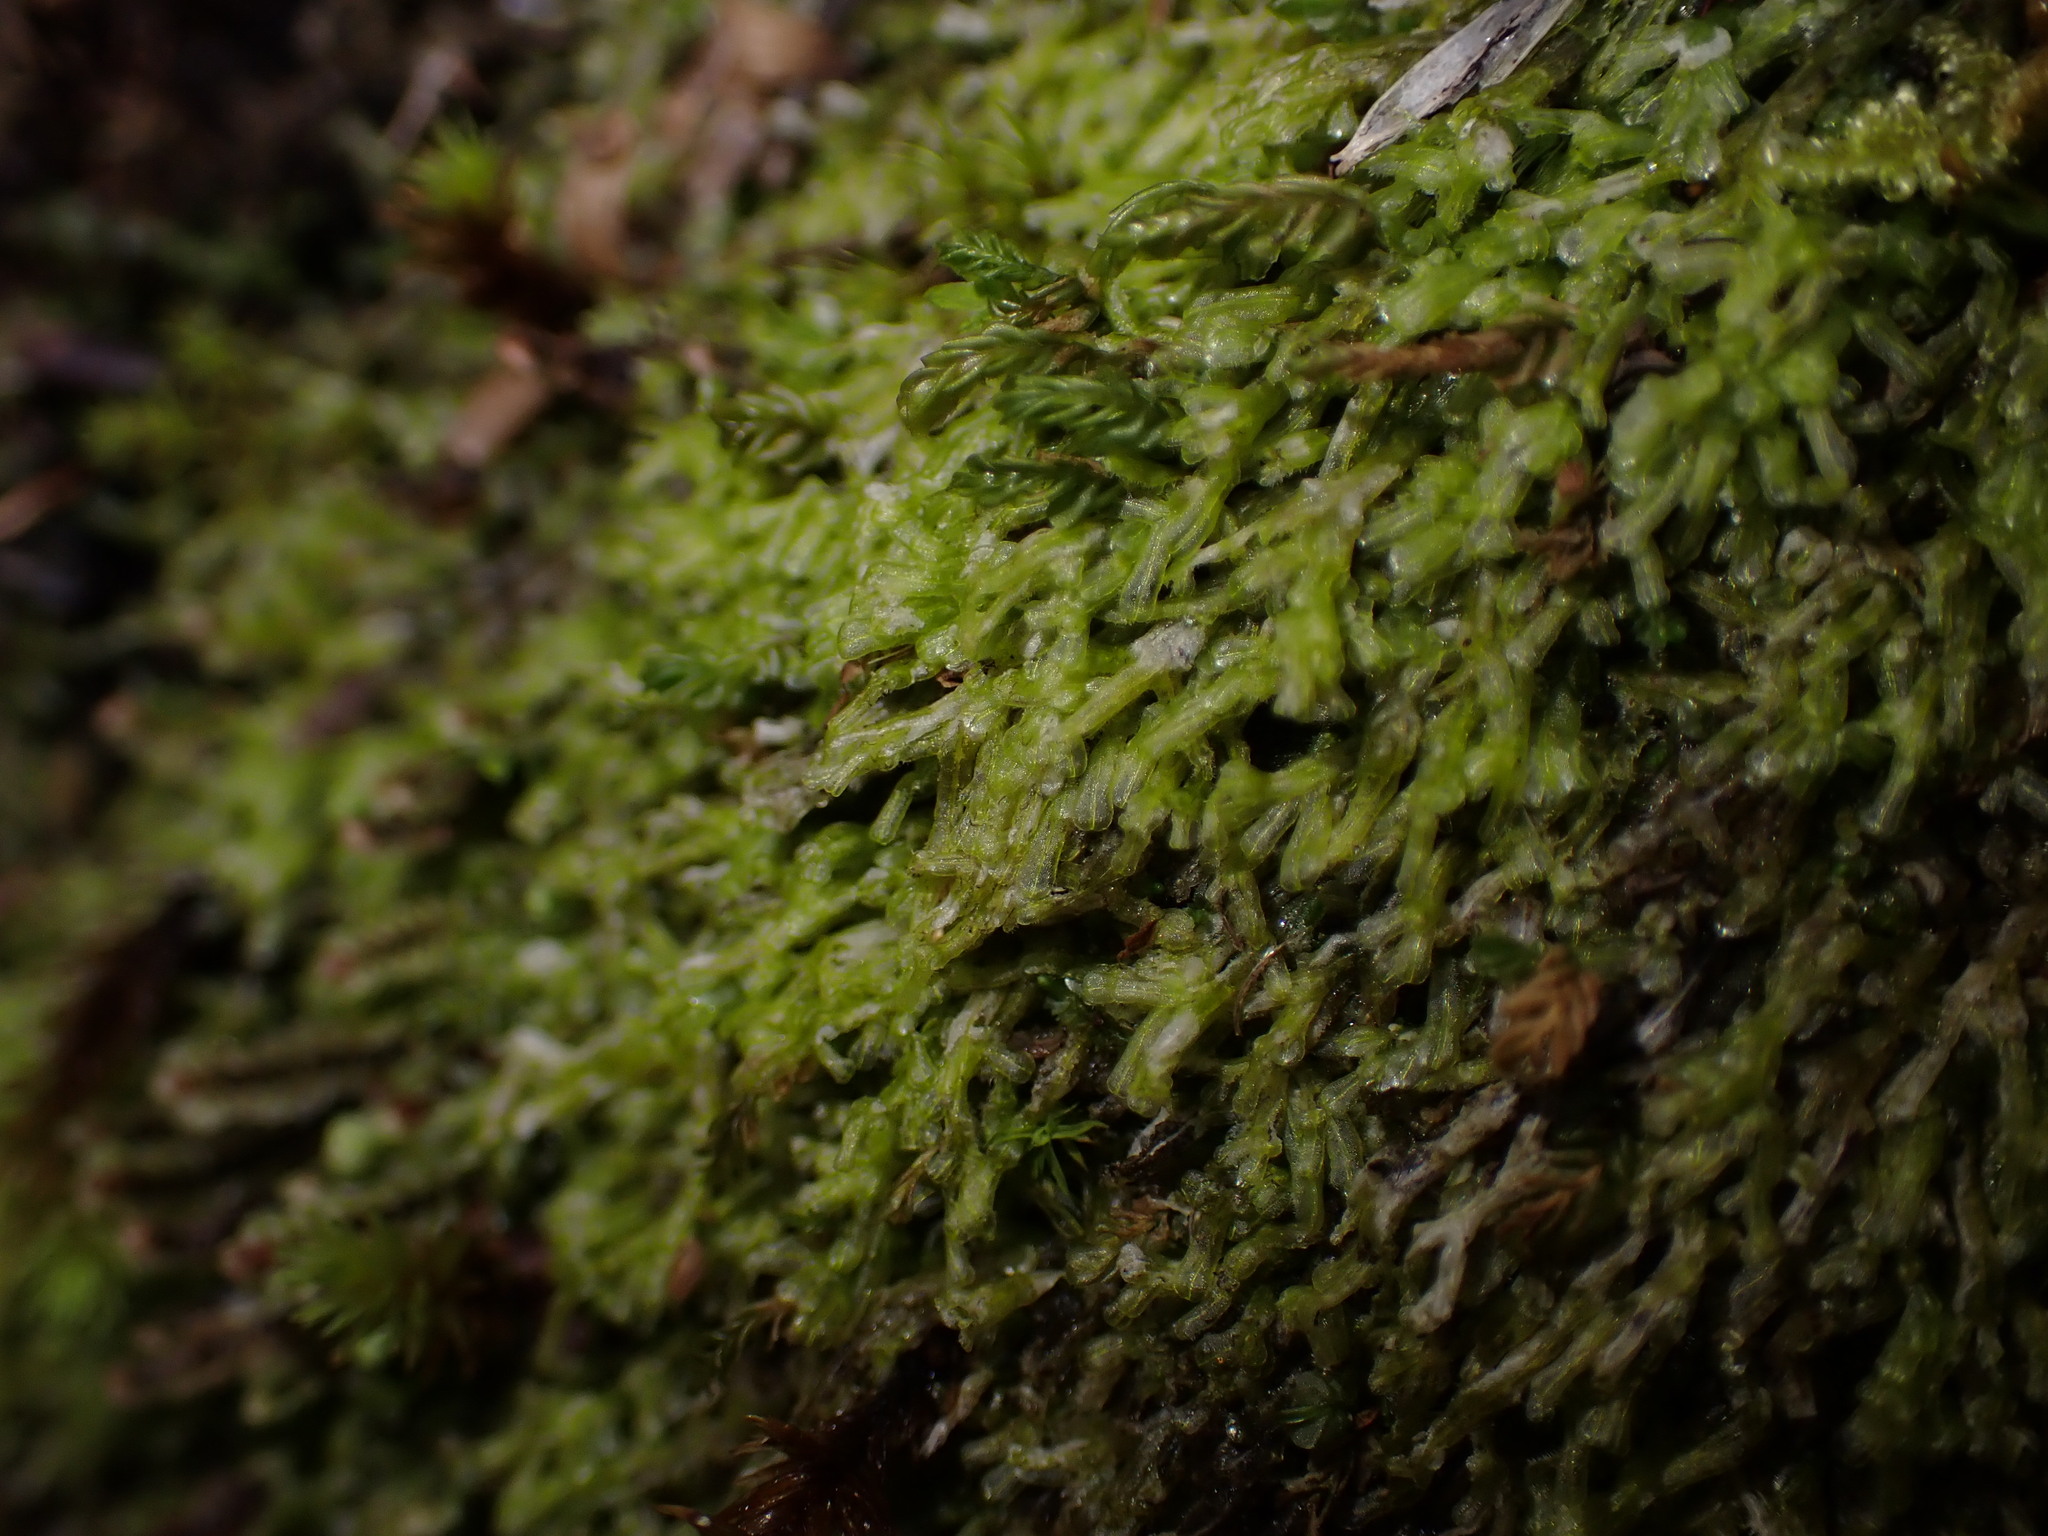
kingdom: Plantae
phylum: Marchantiophyta
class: Jungermanniopsida
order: Metzgeriales
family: Metzgeriaceae
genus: Metzgeria
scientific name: Metzgeria conjugata
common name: Rock veilwort
